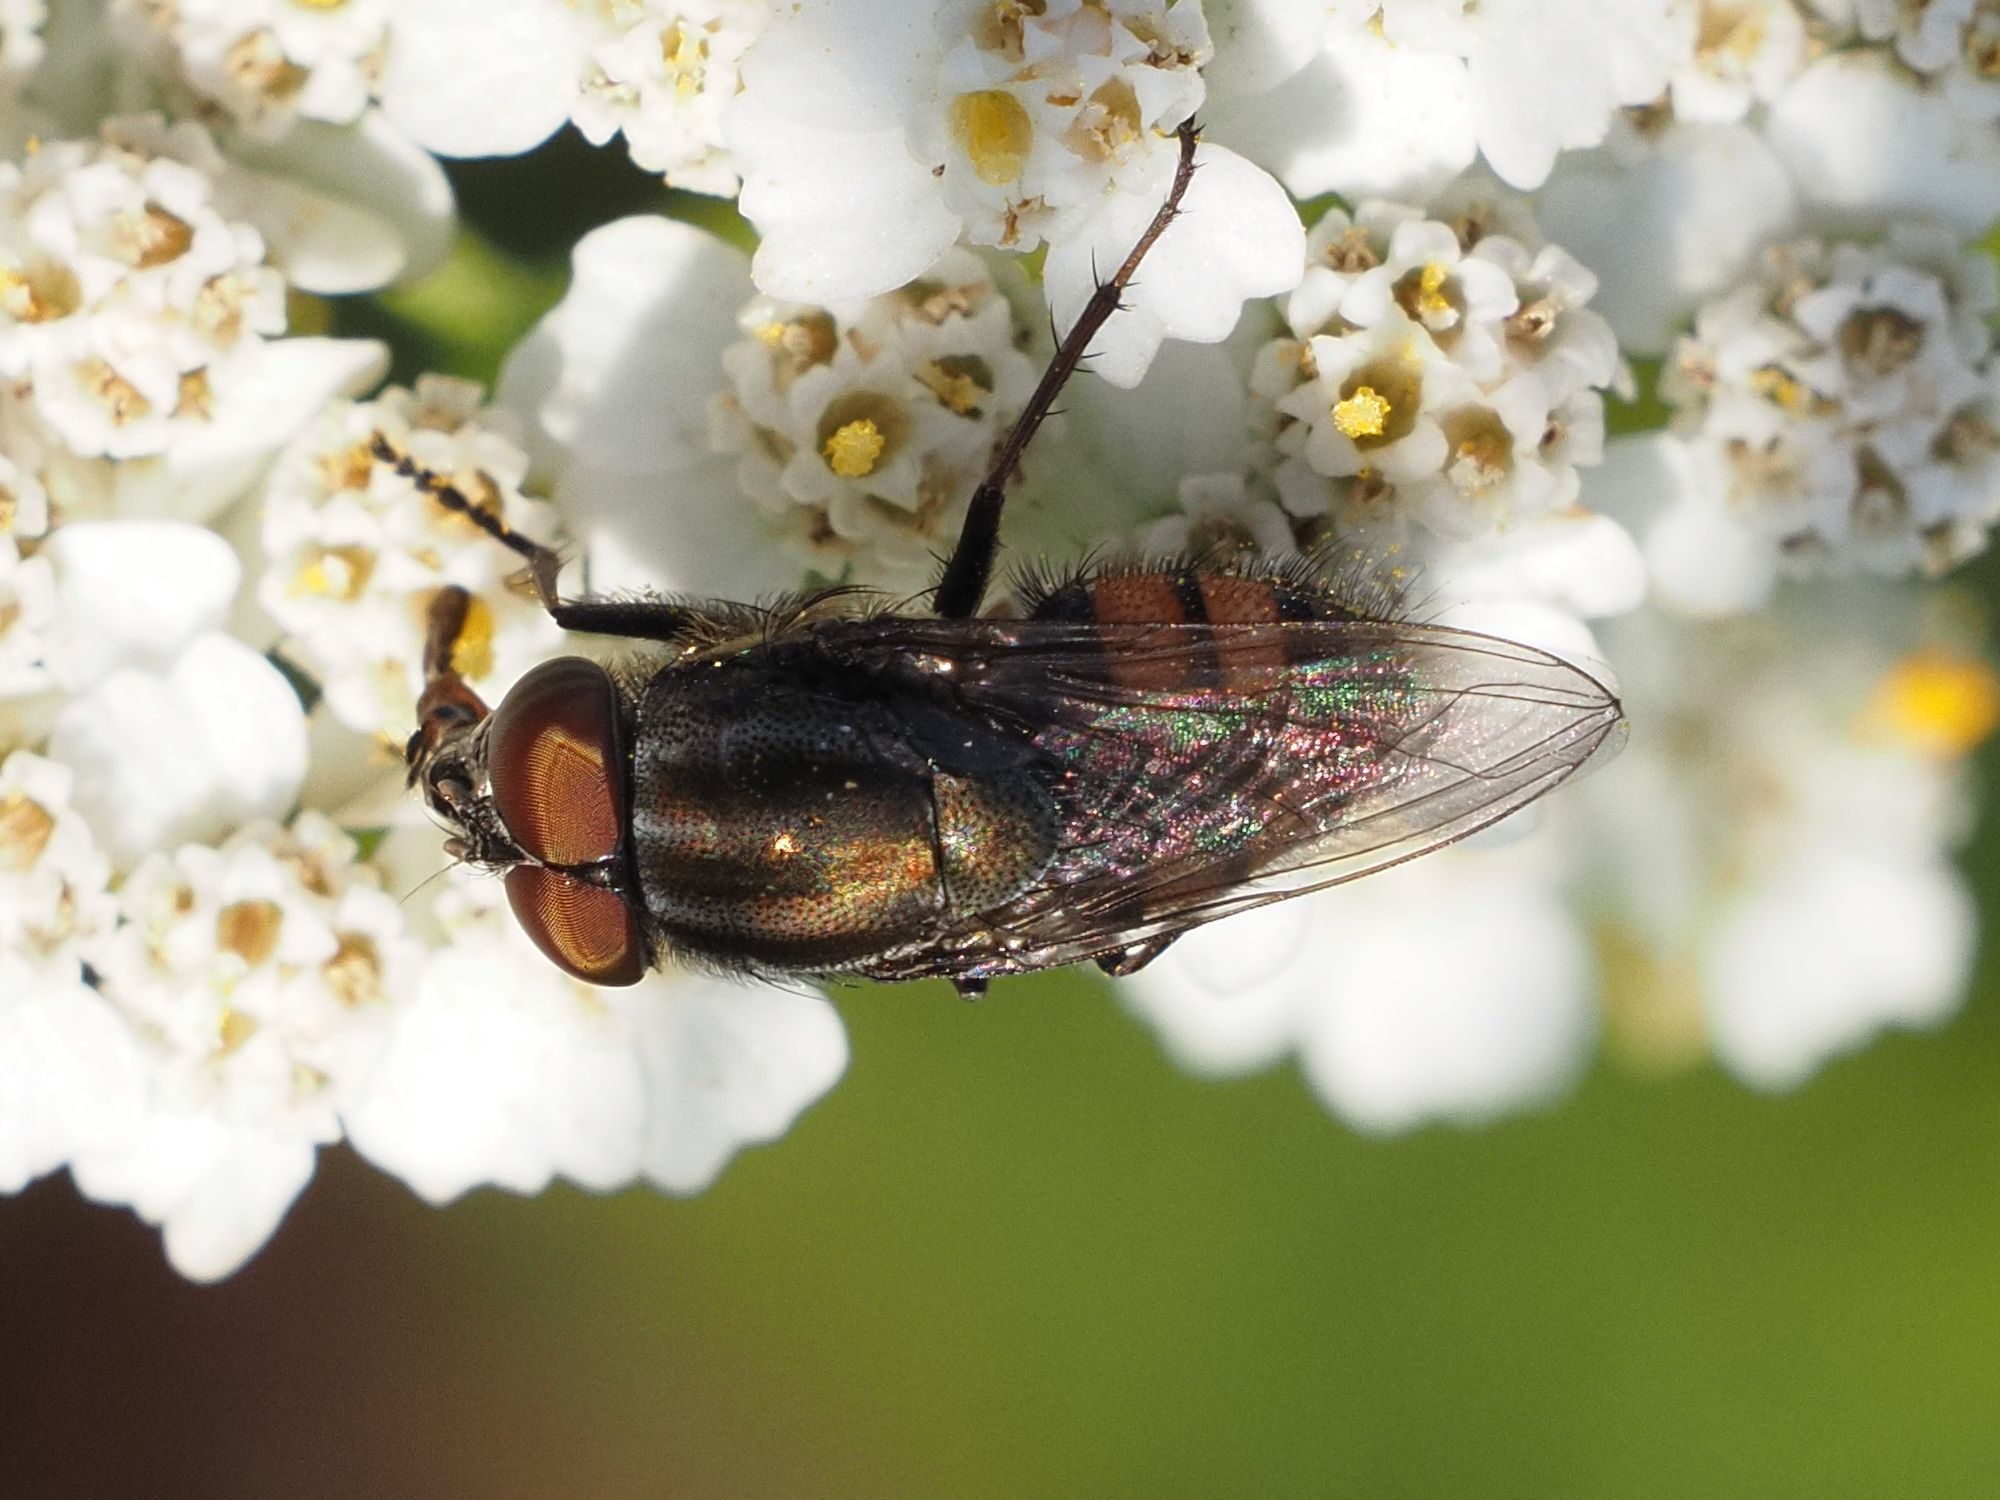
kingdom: Animalia
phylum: Arthropoda
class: Insecta
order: Diptera
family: Calliphoridae
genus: Stomorhina
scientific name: Stomorhina lunata
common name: Locust blowfly
